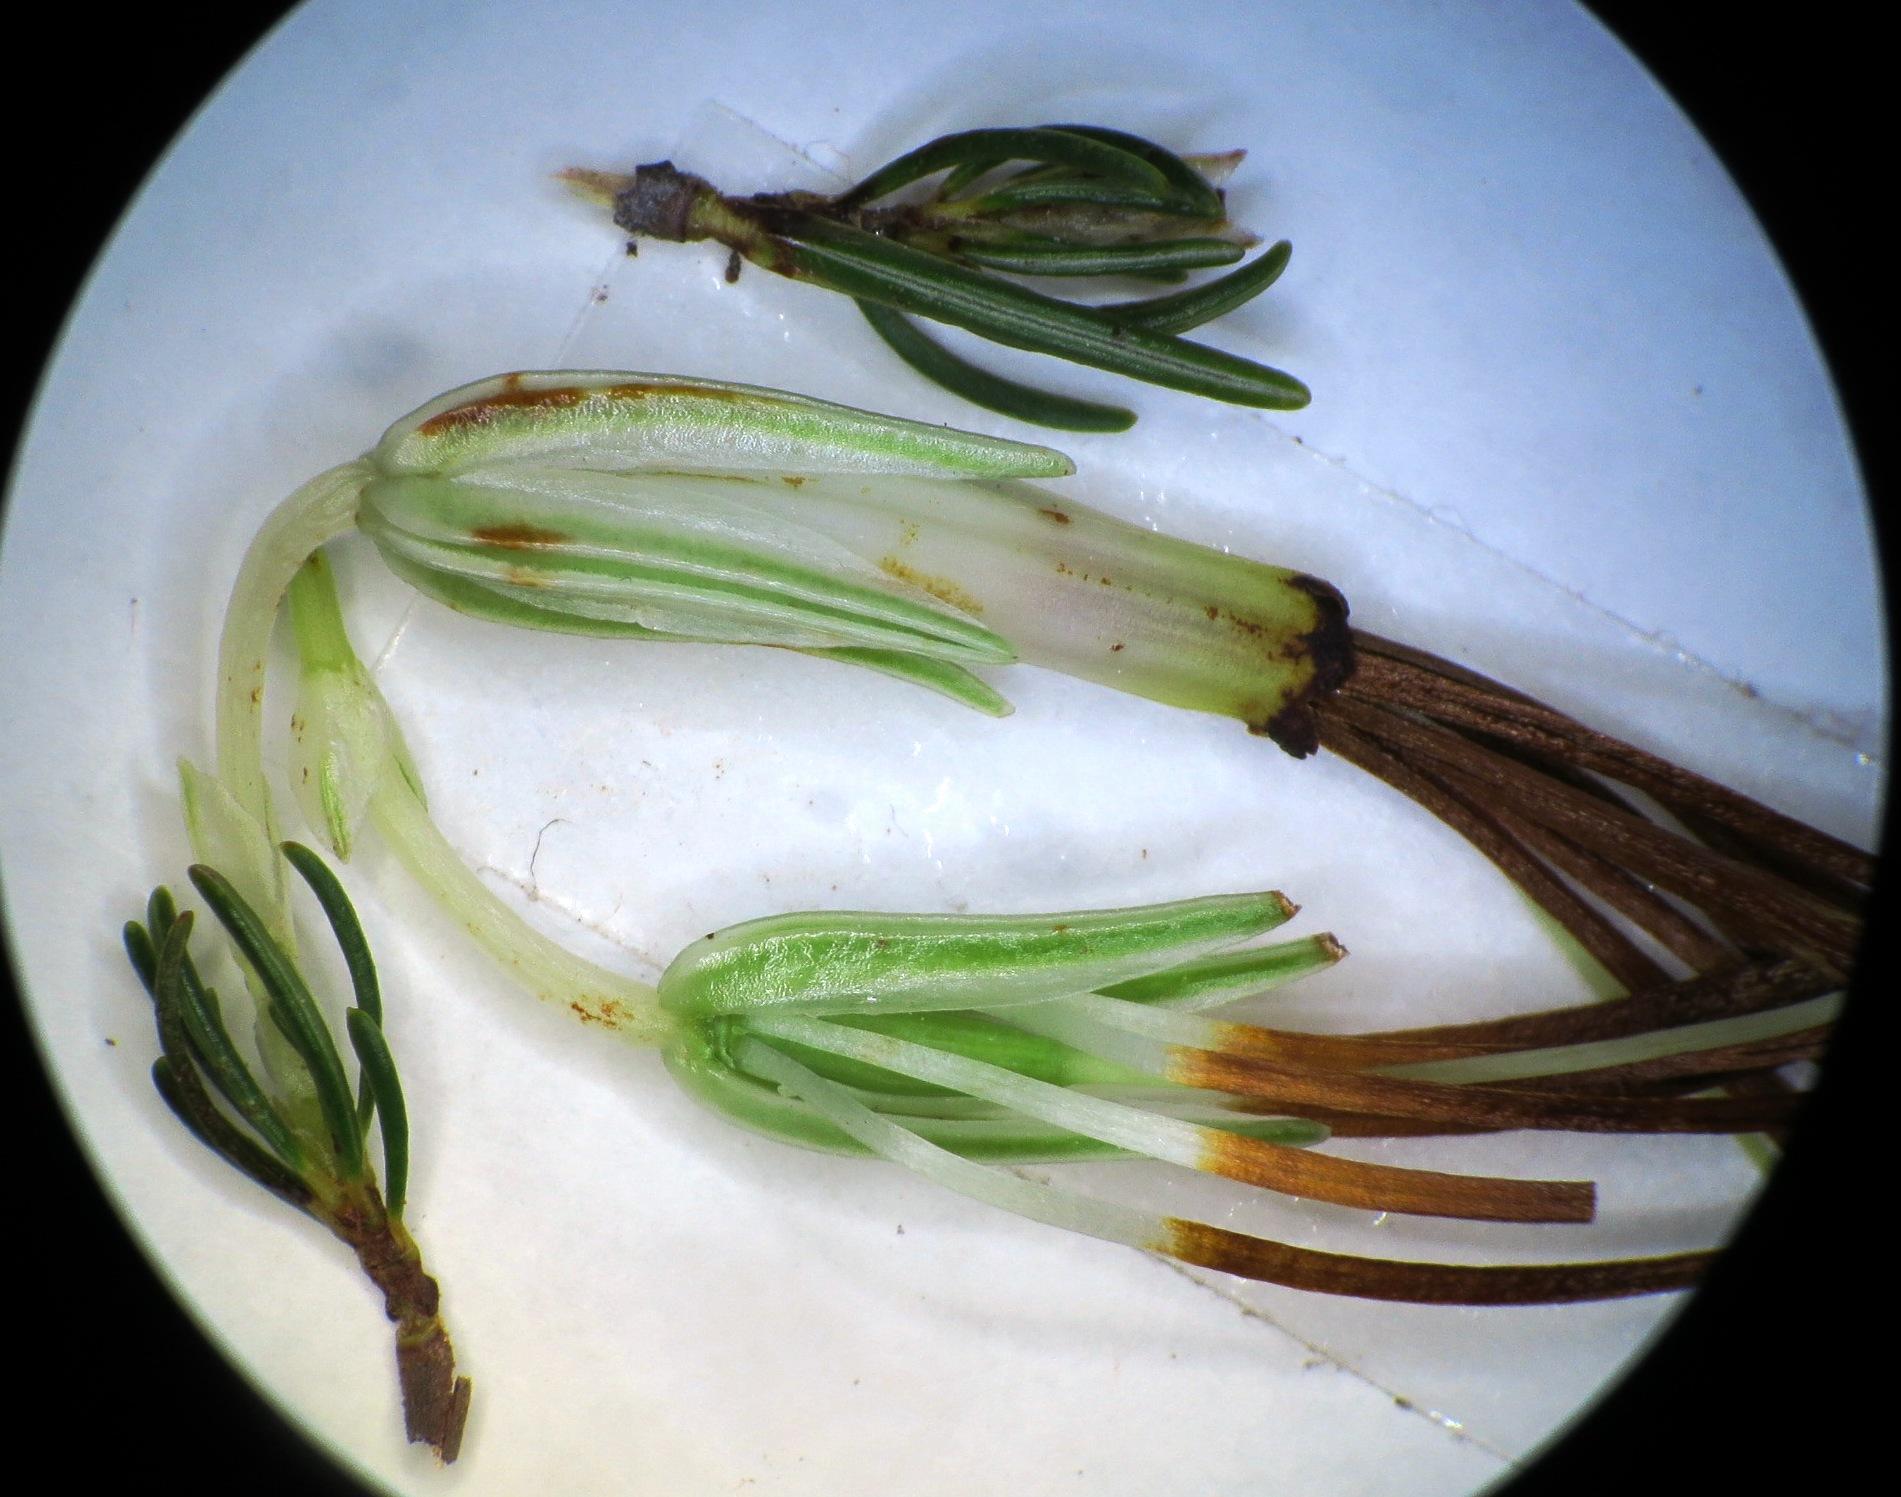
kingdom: Plantae
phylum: Tracheophyta
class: Magnoliopsida
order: Ericales
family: Ericaceae
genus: Erica
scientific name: Erica plukenetii
